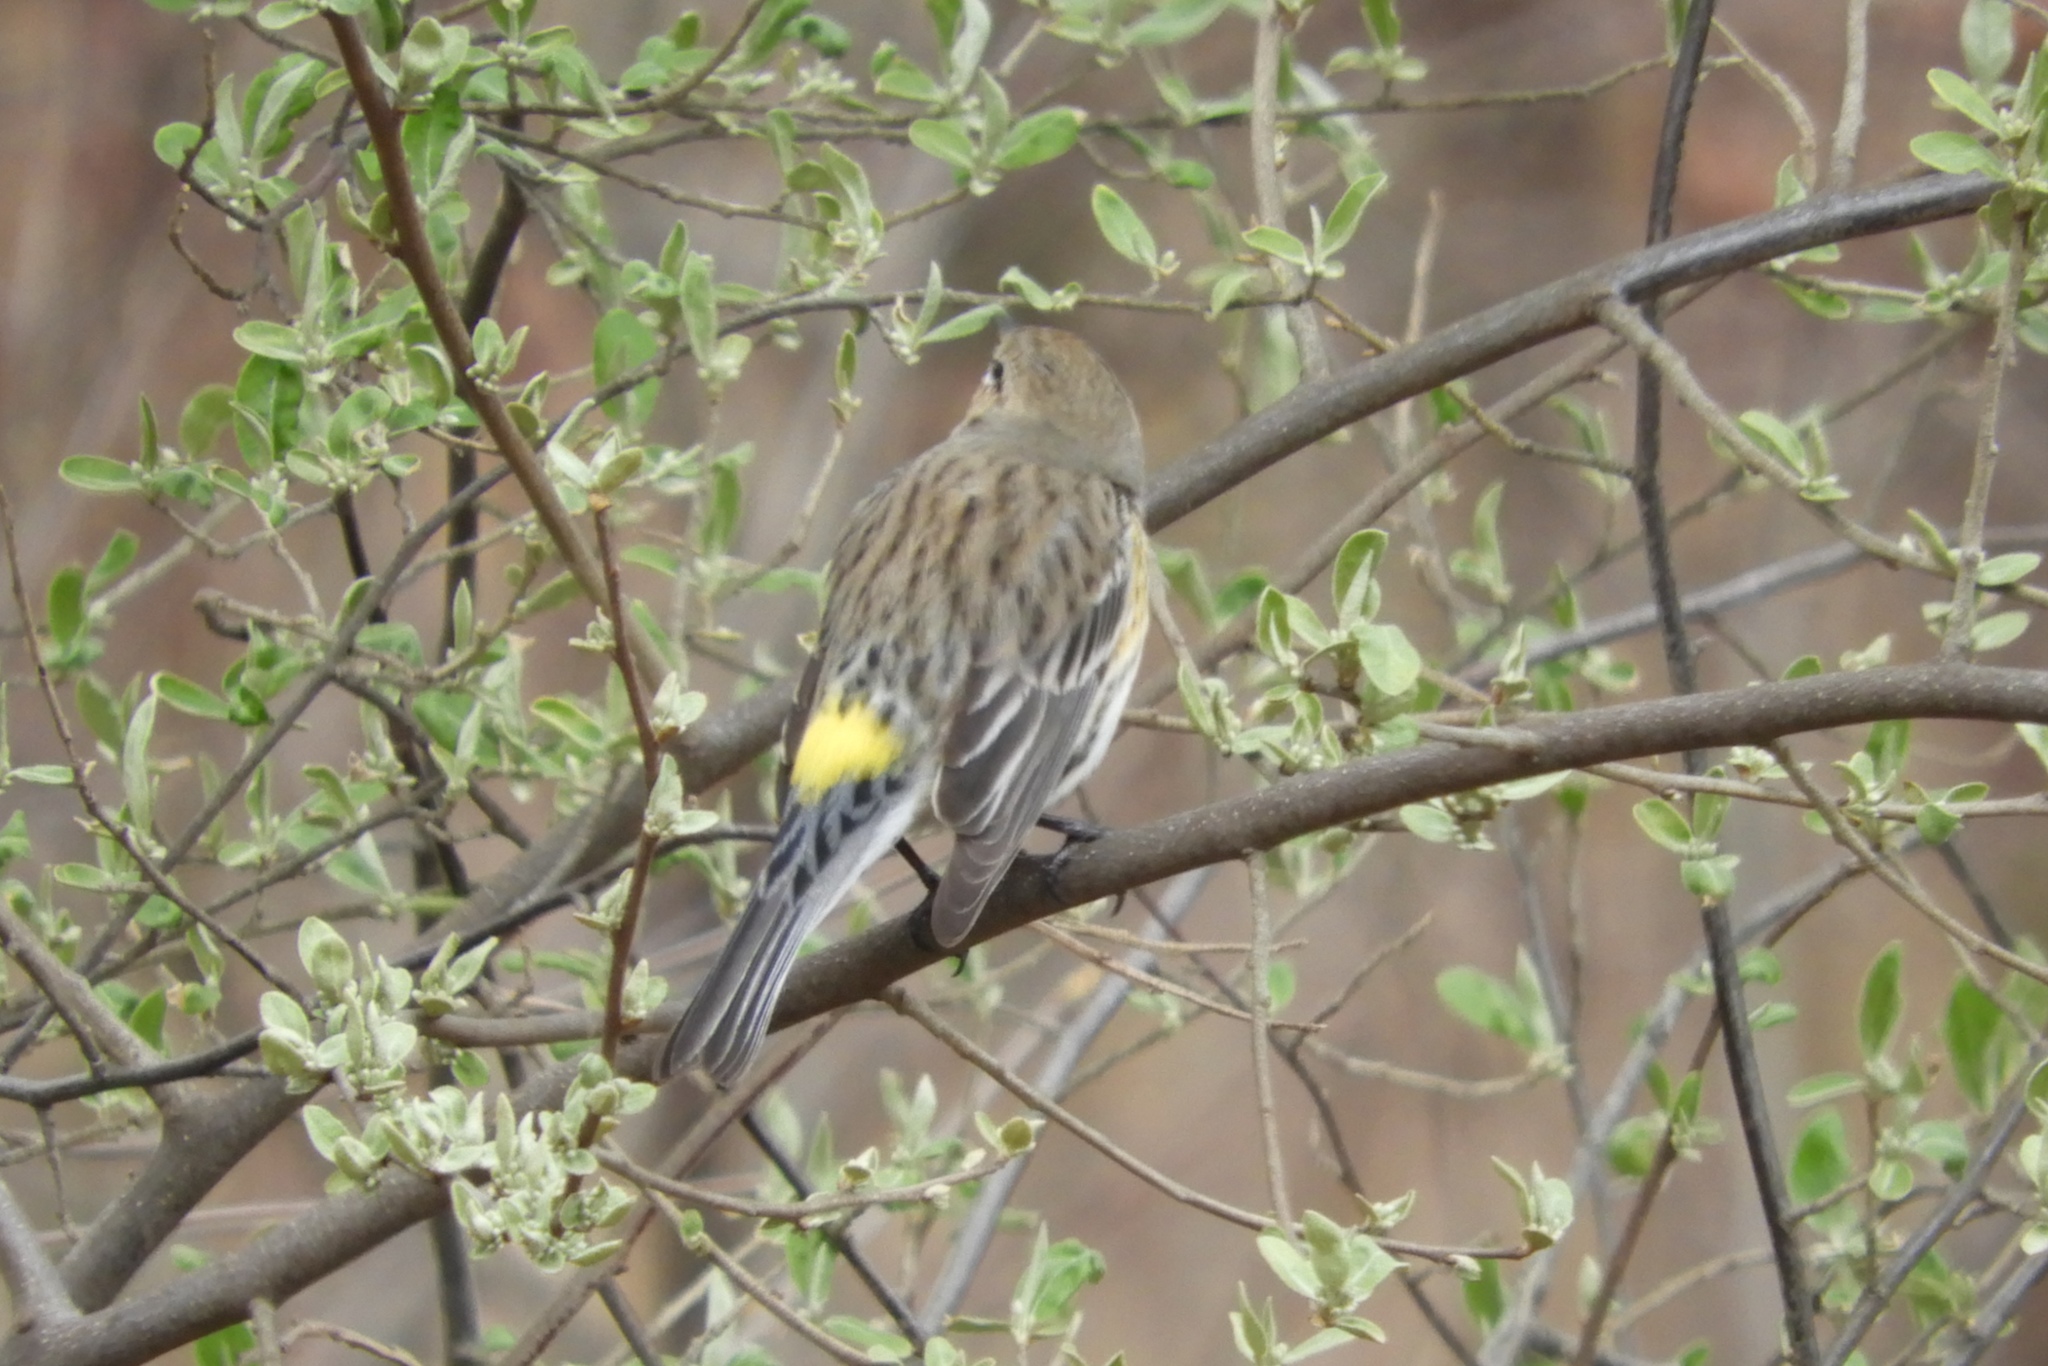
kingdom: Animalia
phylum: Chordata
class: Aves
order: Passeriformes
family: Parulidae
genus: Setophaga
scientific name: Setophaga coronata
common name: Myrtle warbler
